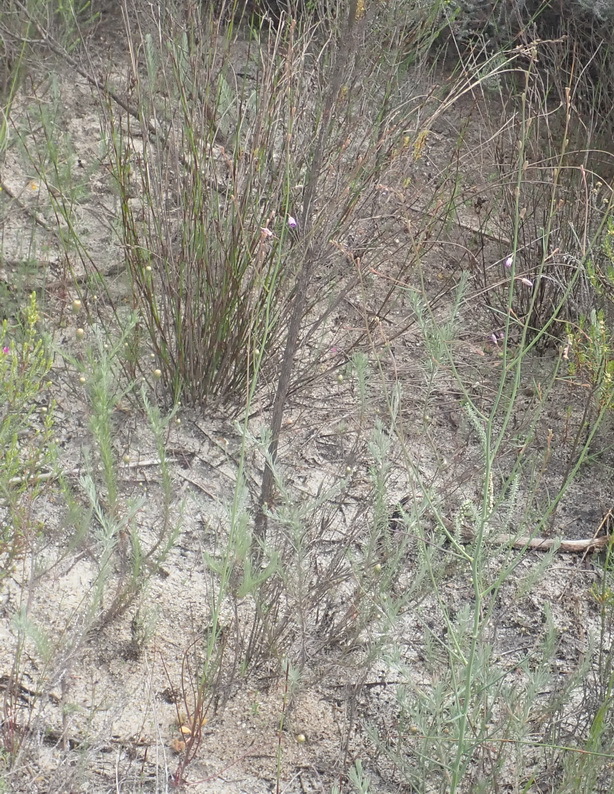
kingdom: Plantae
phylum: Tracheophyta
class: Magnoliopsida
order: Brassicales
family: Brassicaceae
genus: Heliophila
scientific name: Heliophila linoides
